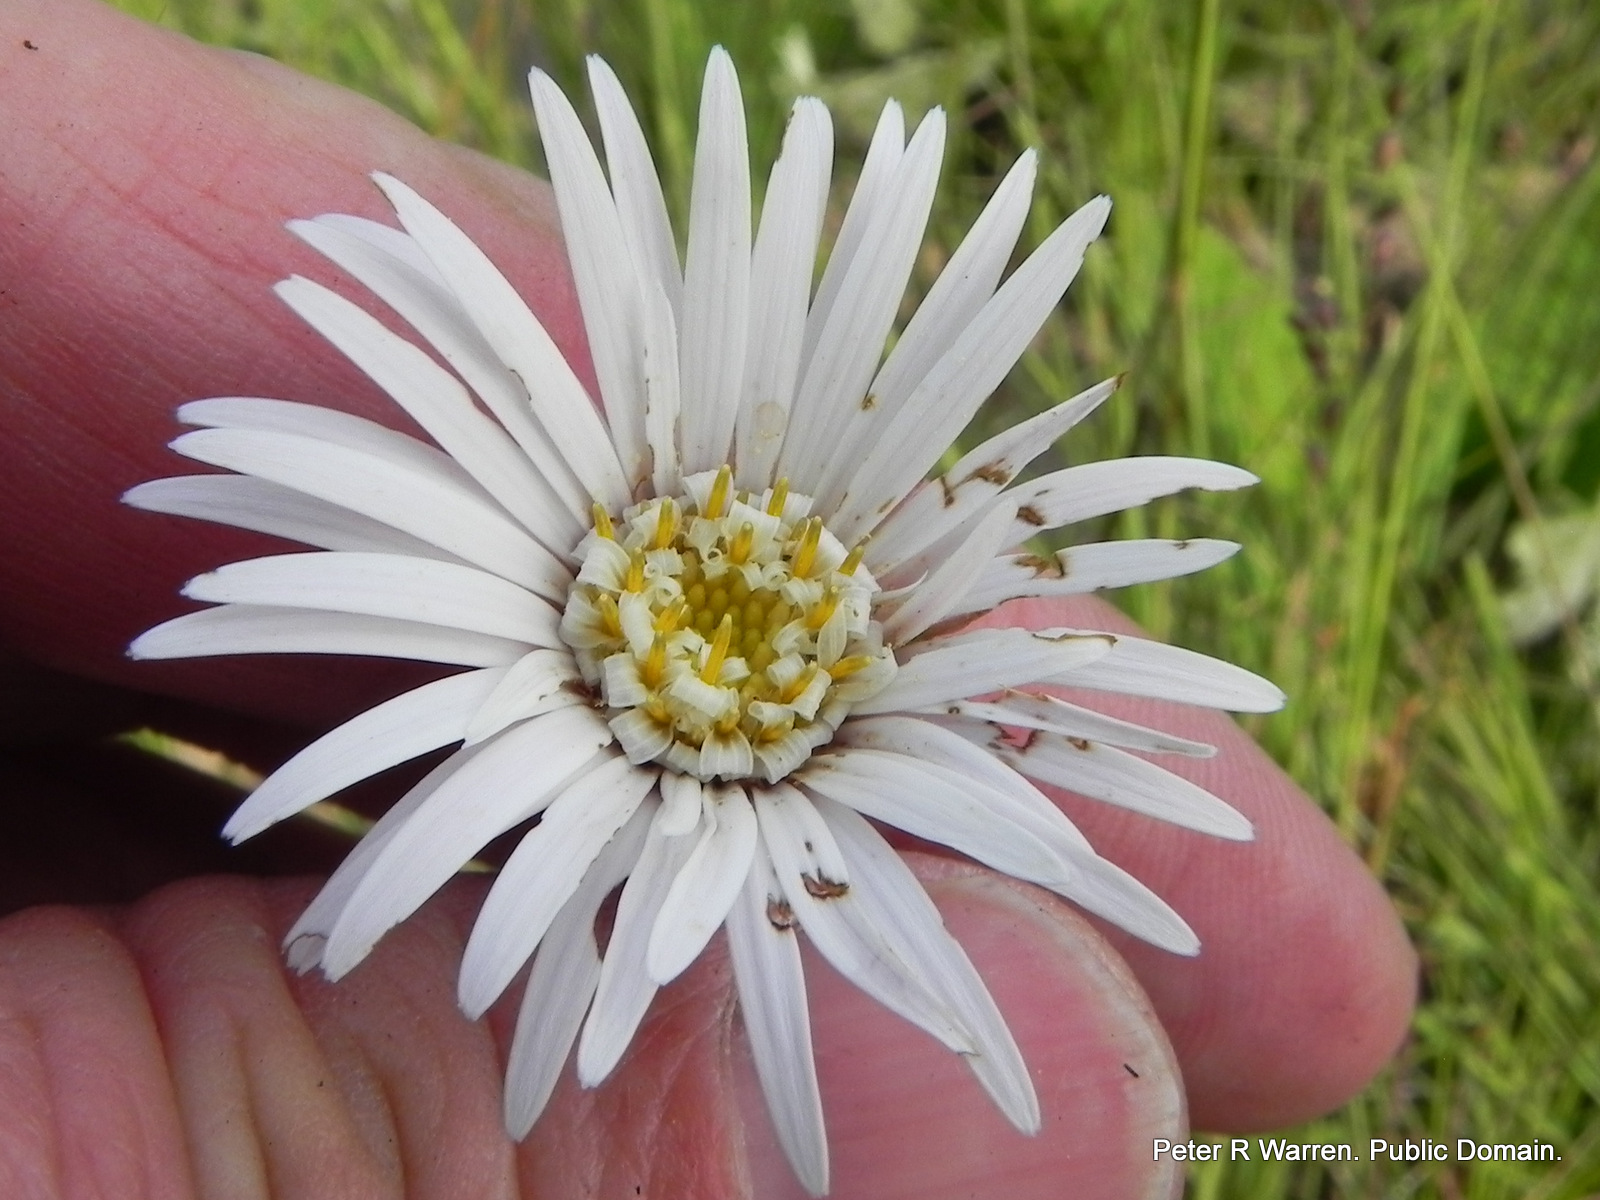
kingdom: Plantae
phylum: Tracheophyta
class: Magnoliopsida
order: Asterales
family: Asteraceae
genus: Gerbera
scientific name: Gerbera ambigua
